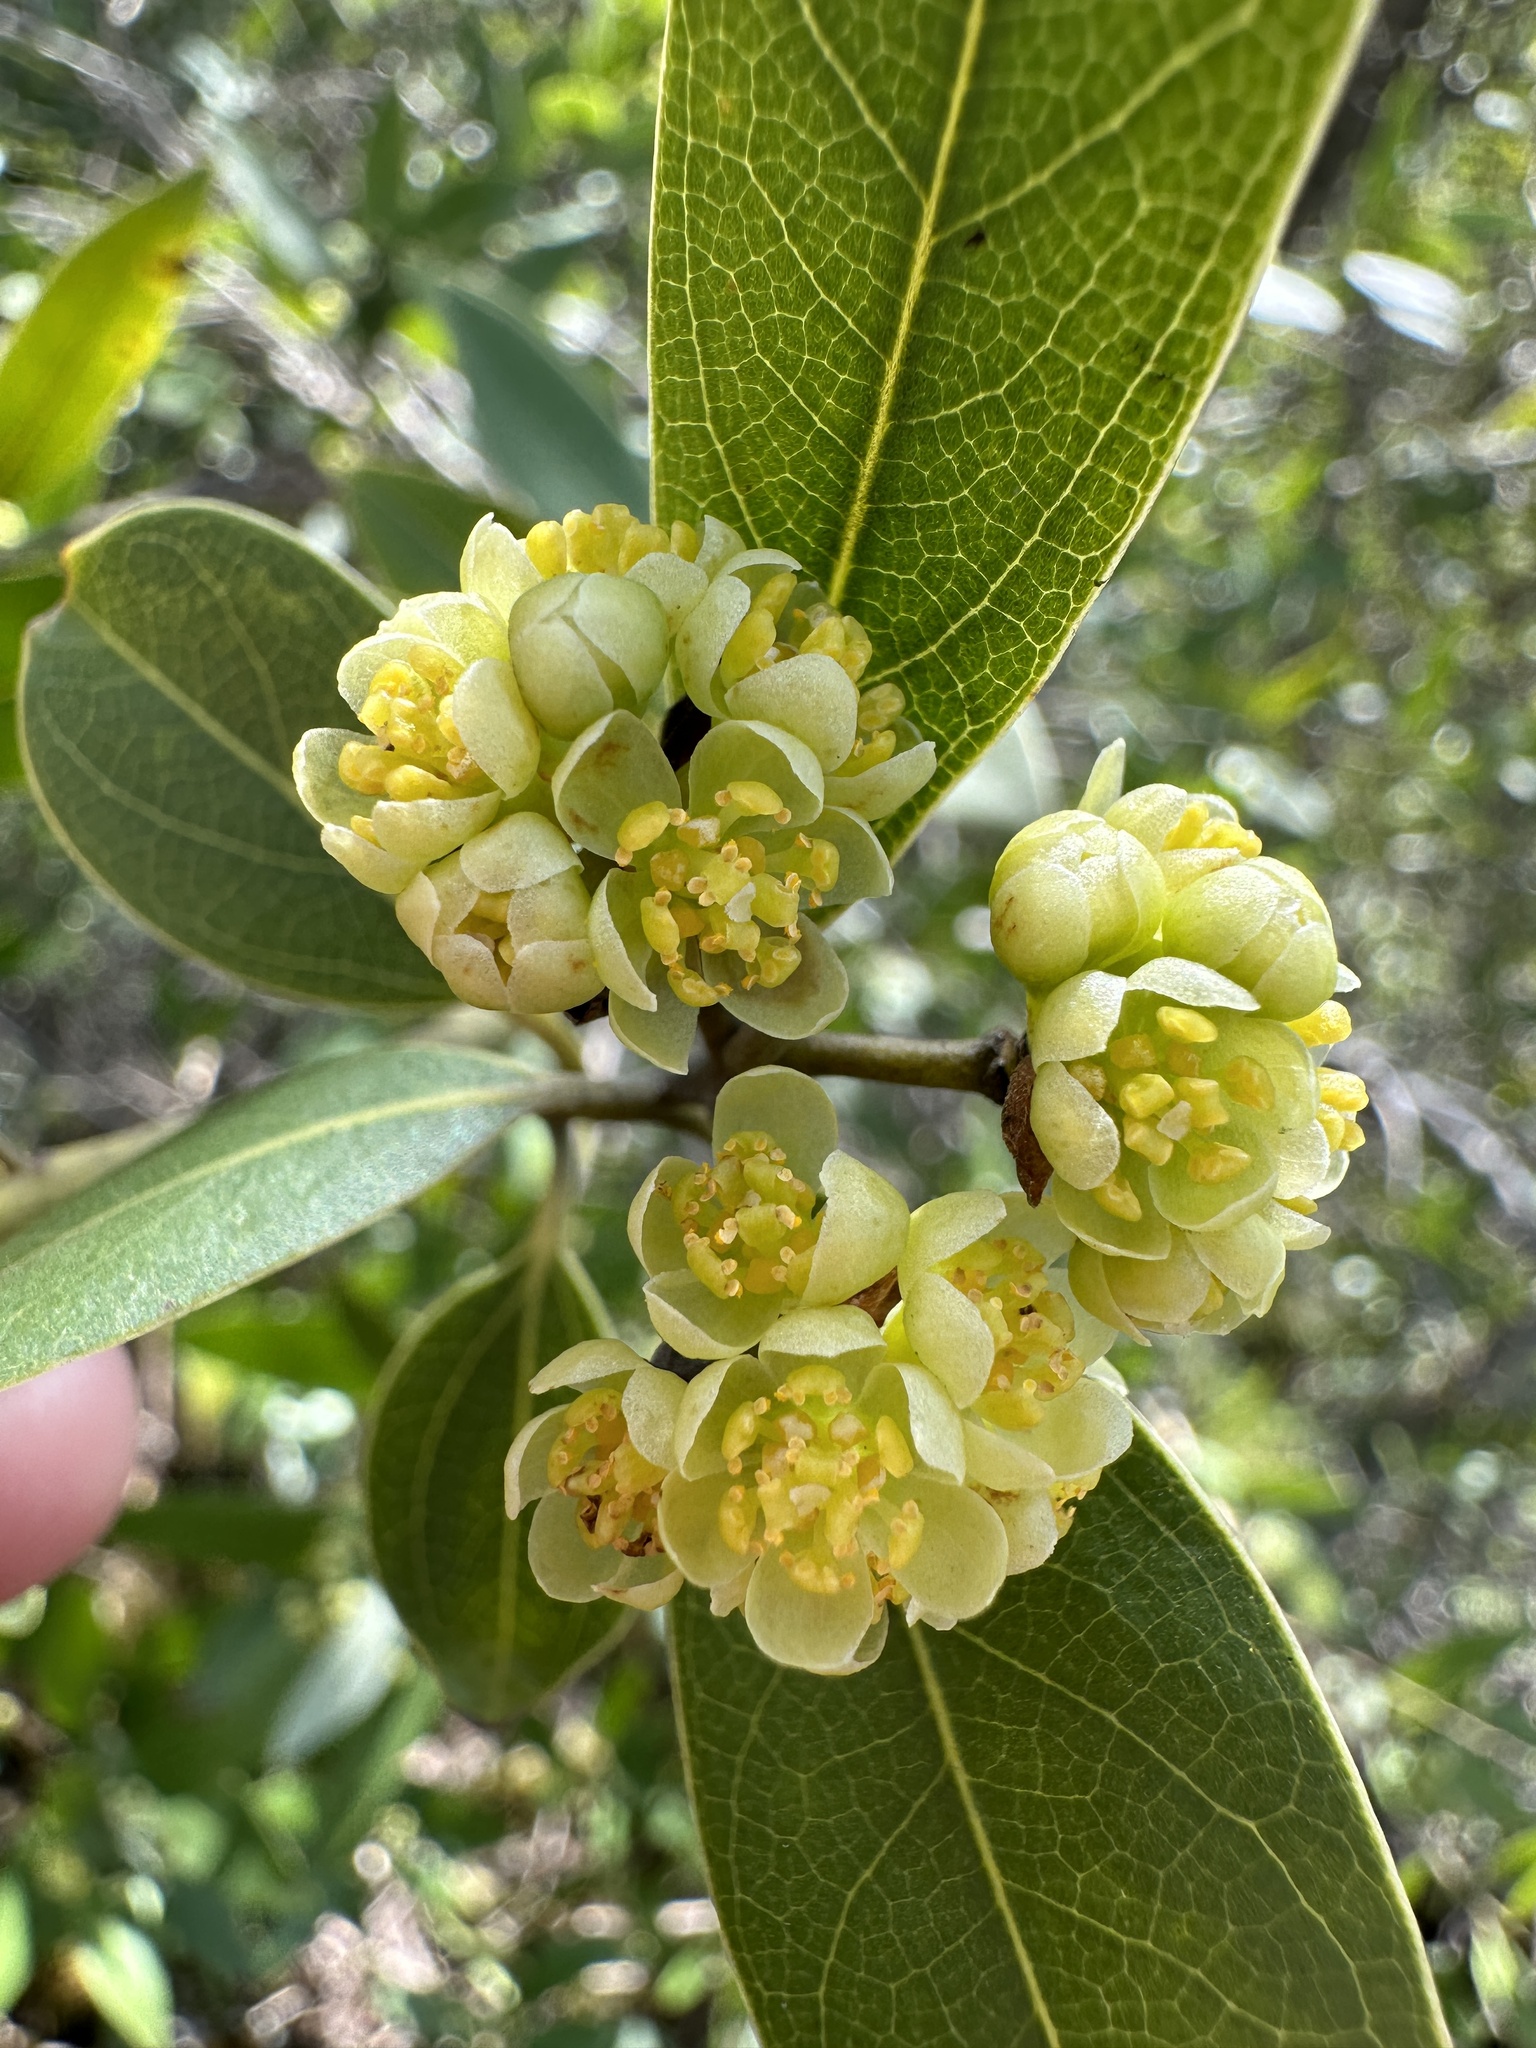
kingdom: Plantae
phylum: Tracheophyta
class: Magnoliopsida
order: Laurales
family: Lauraceae
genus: Umbellularia
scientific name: Umbellularia californica
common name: California bay
